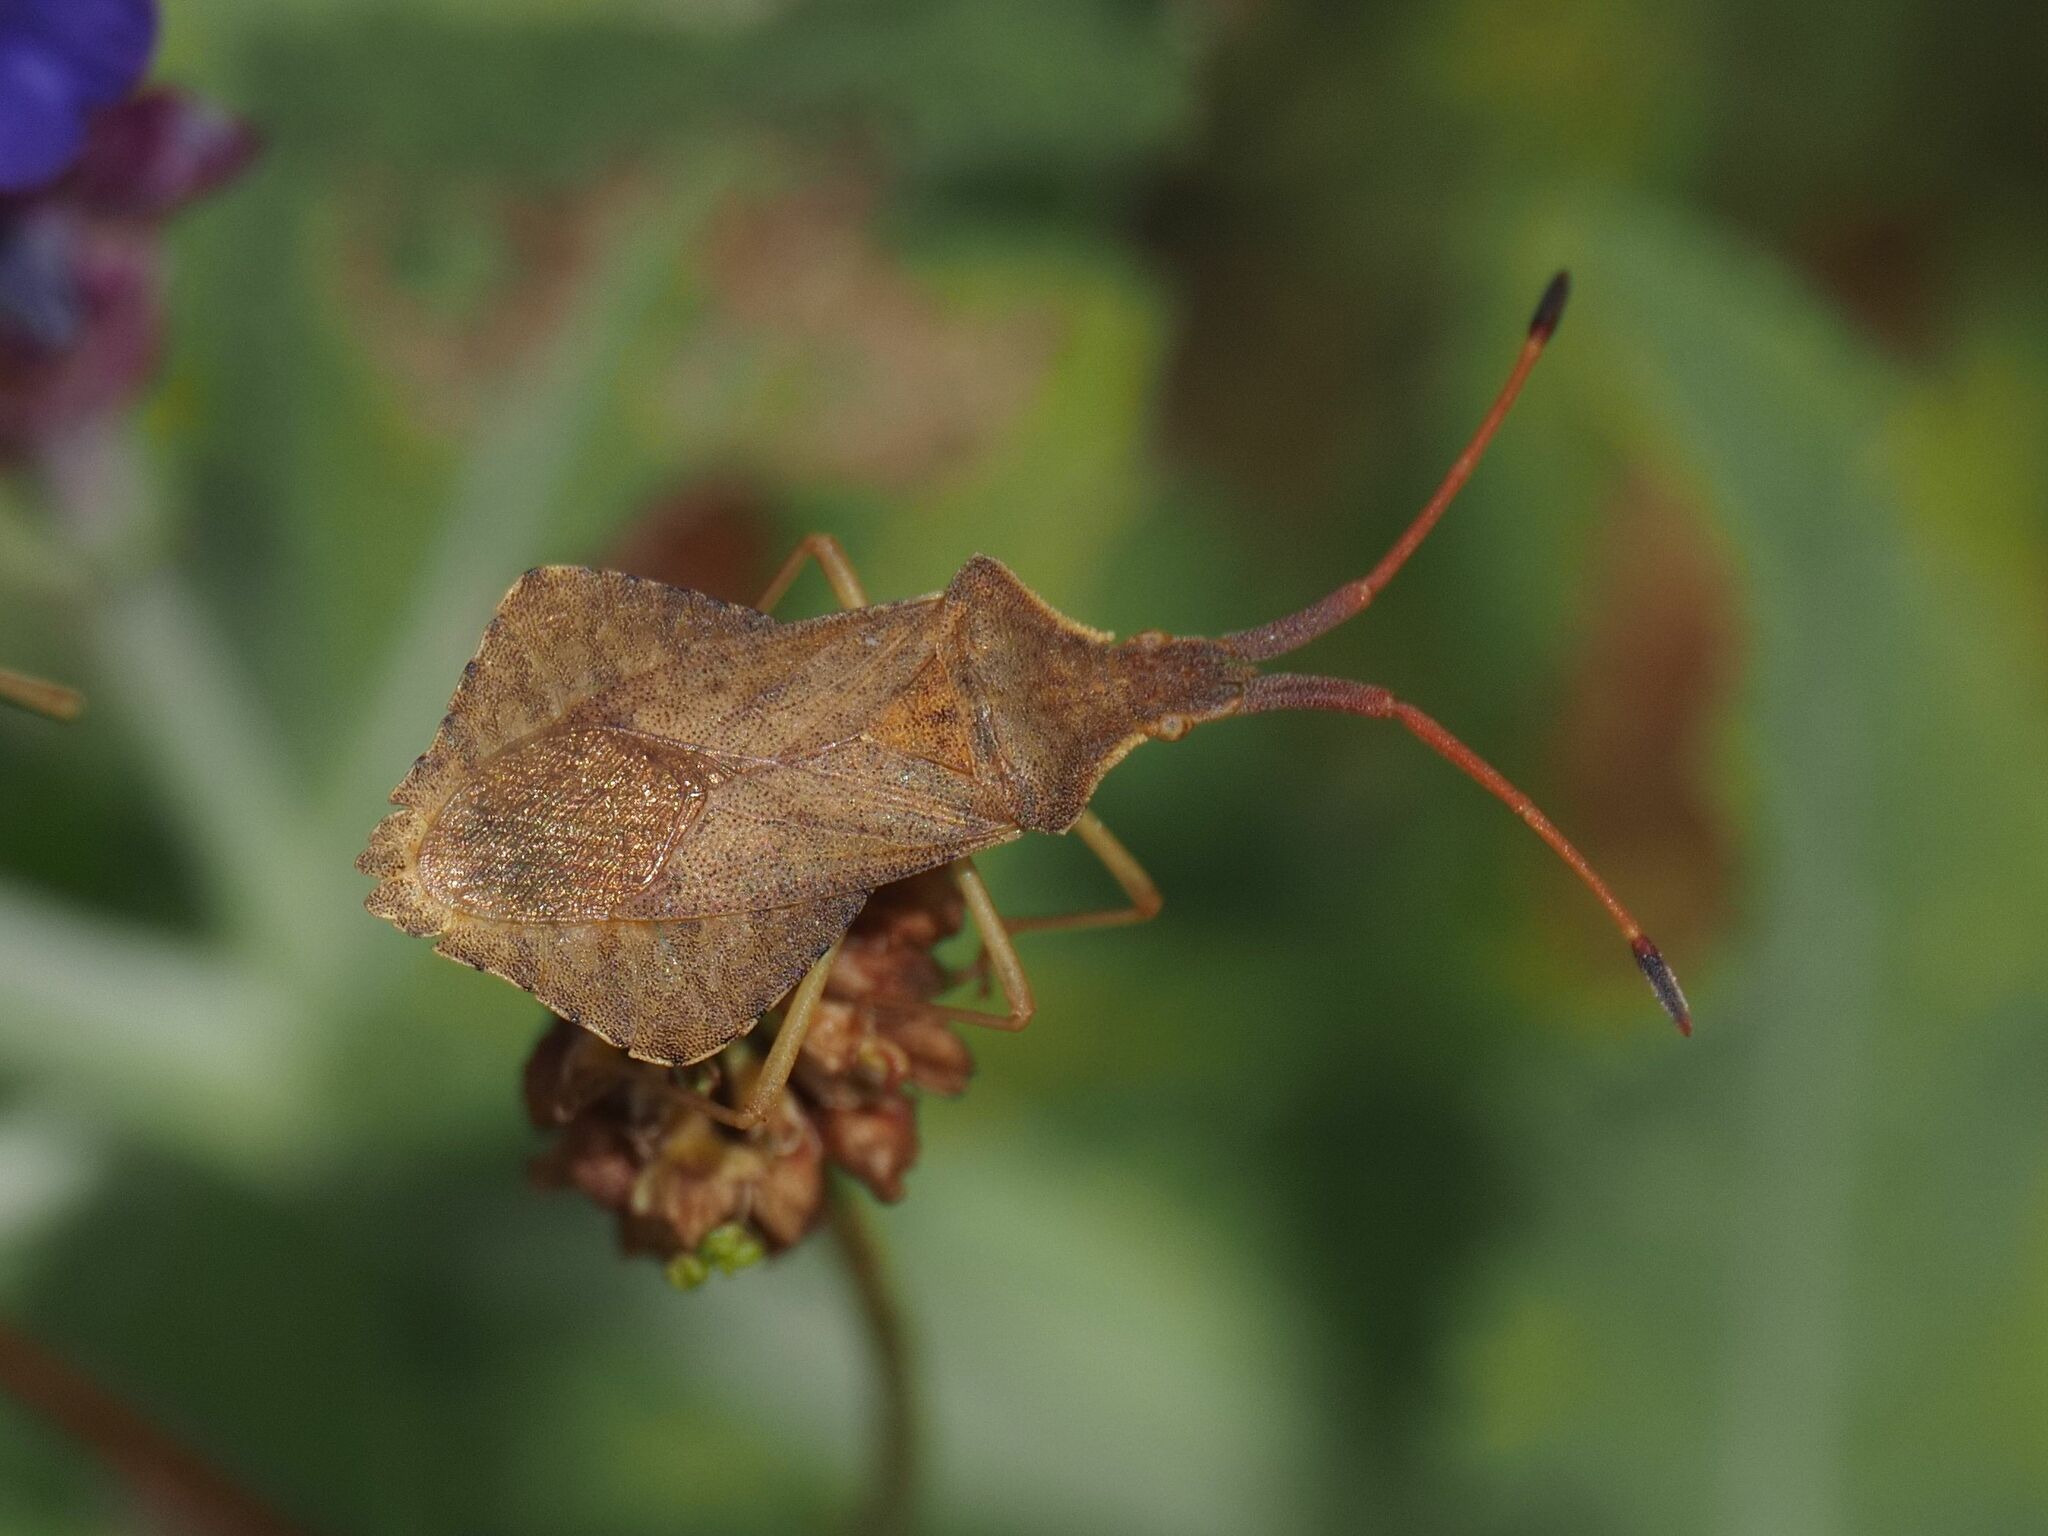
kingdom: Animalia
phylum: Arthropoda
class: Insecta
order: Hemiptera
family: Coreidae
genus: Syromastus
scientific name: Syromastus rhombeus
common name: Rhombic leatherbug
